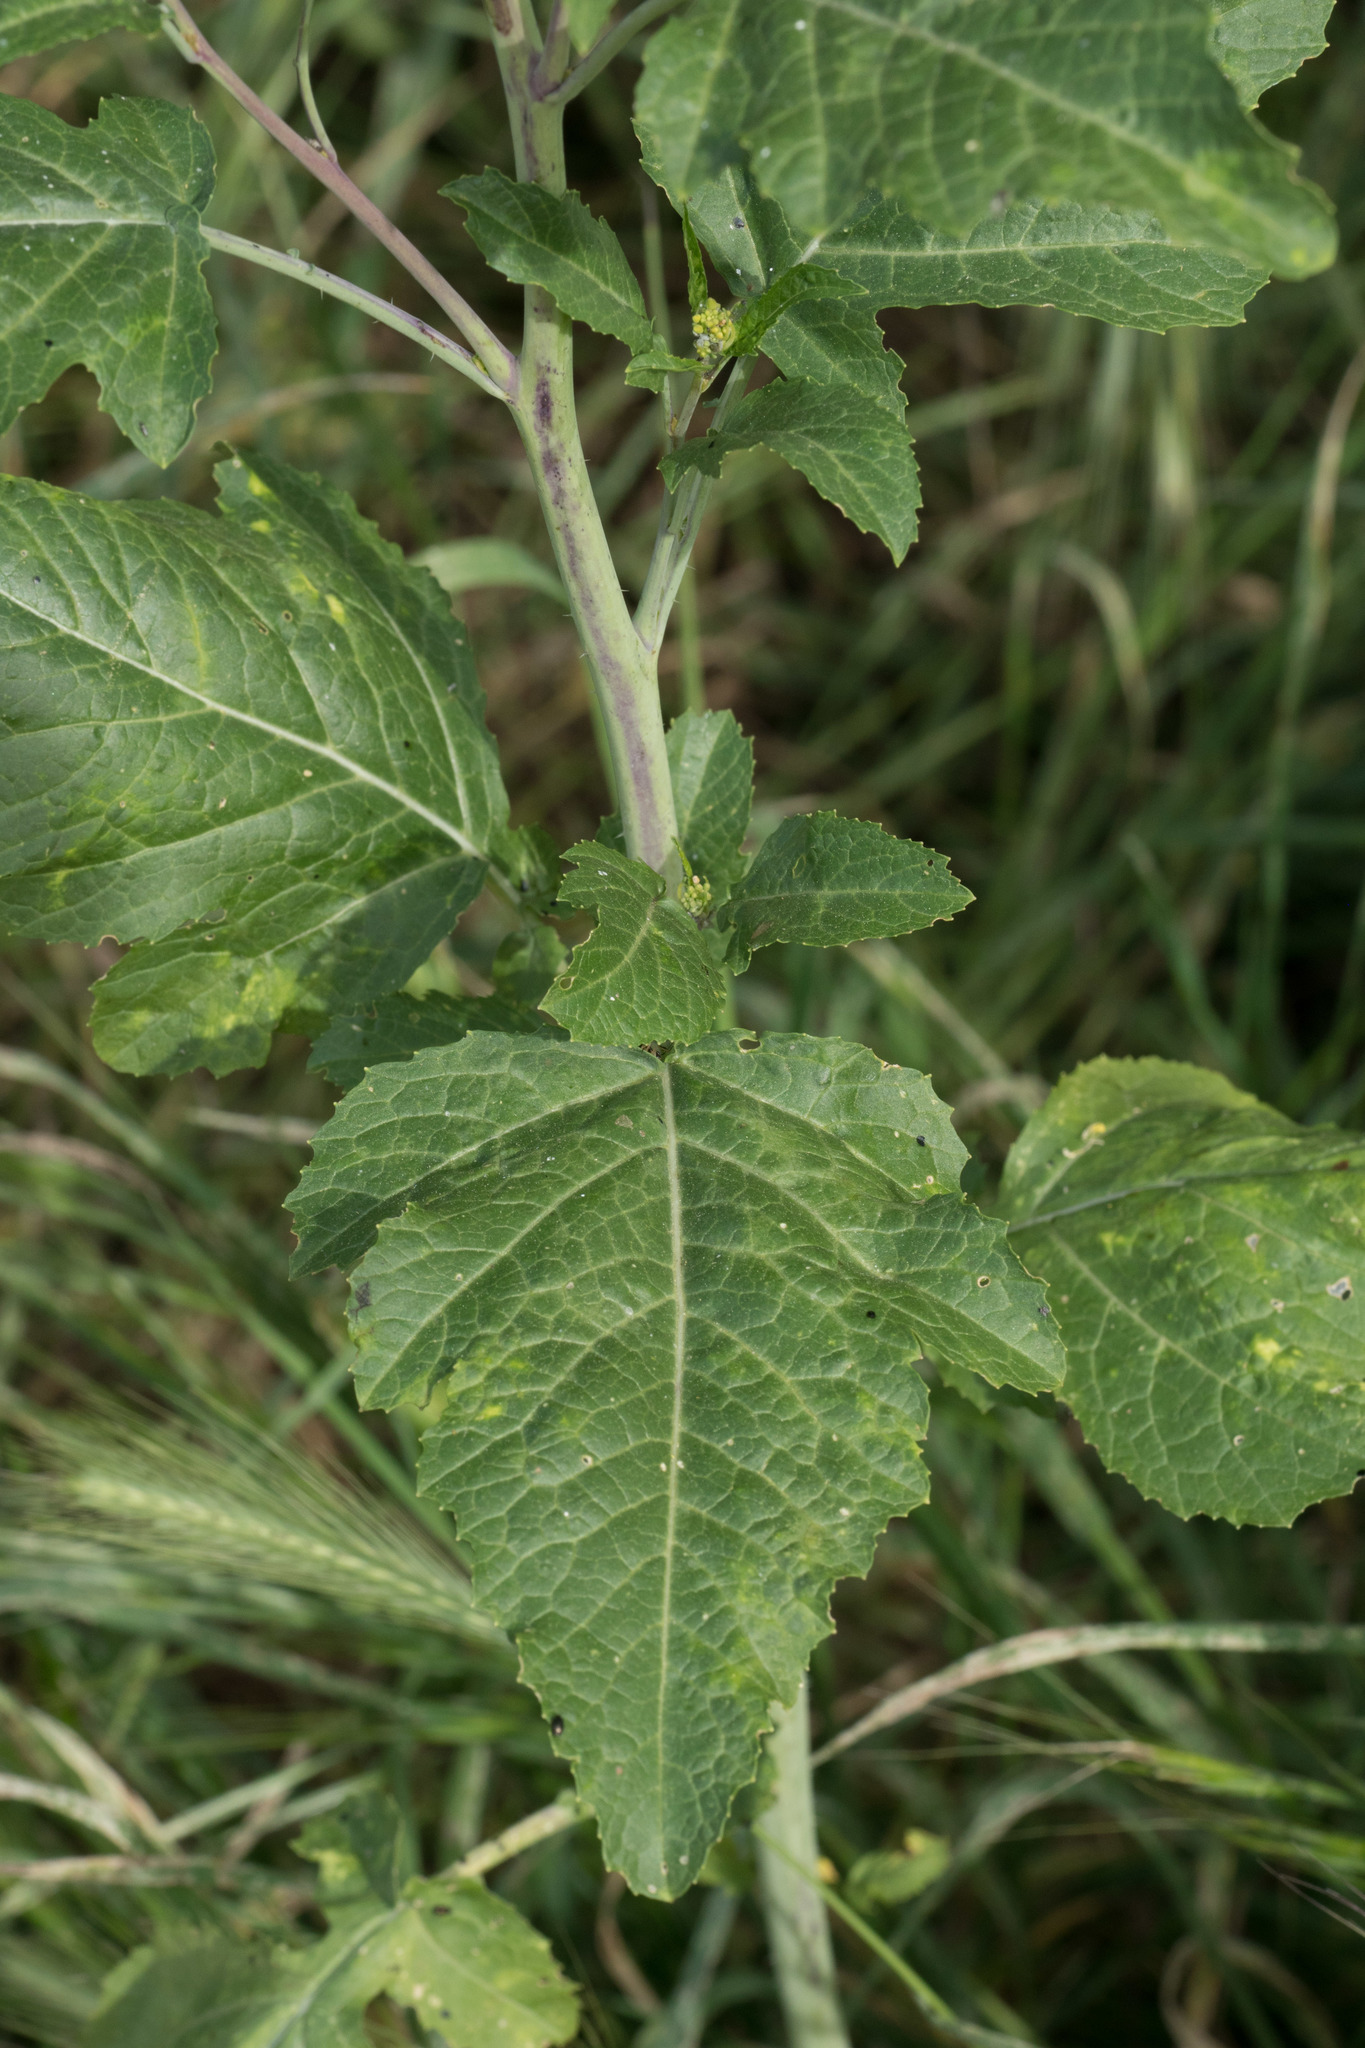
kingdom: Plantae
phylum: Tracheophyta
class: Magnoliopsida
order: Brassicales
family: Brassicaceae
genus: Brassica
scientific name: Brassica nigra
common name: Black mustard
